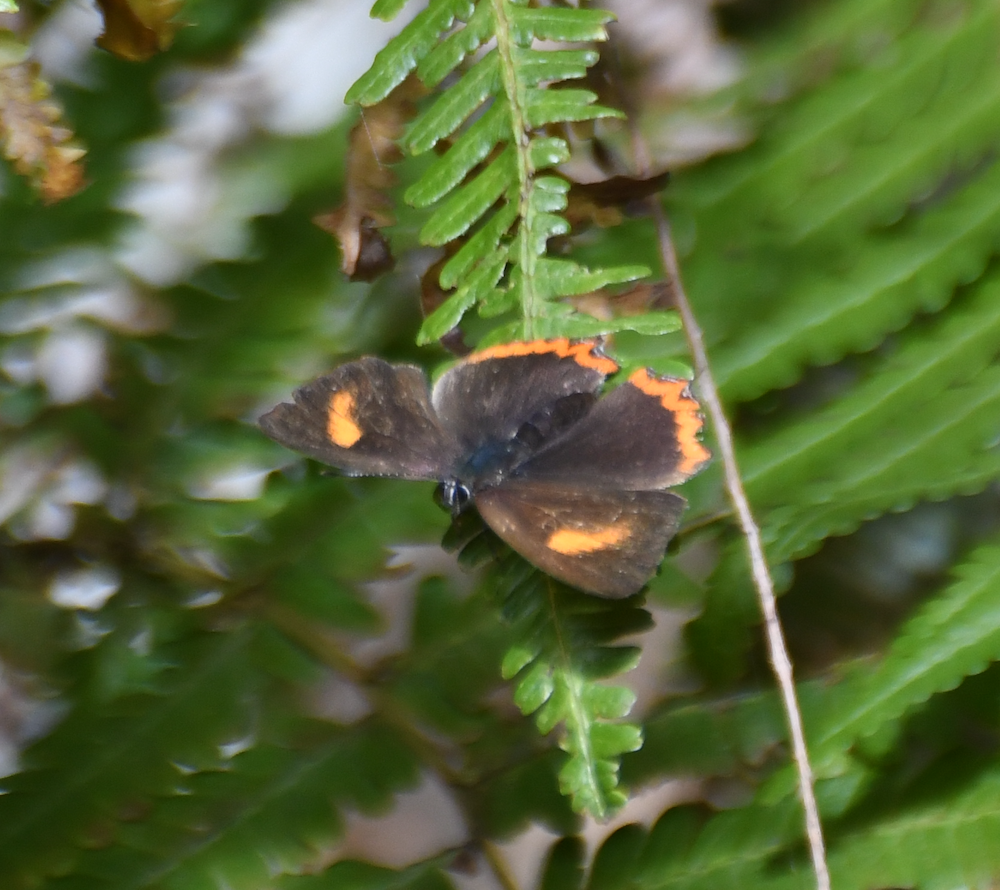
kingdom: Animalia
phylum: Arthropoda
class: Insecta
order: Lepidoptera
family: Lycaenidae
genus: Heliophorus
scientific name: Heliophorus ila
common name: Restricted purple sapphire
